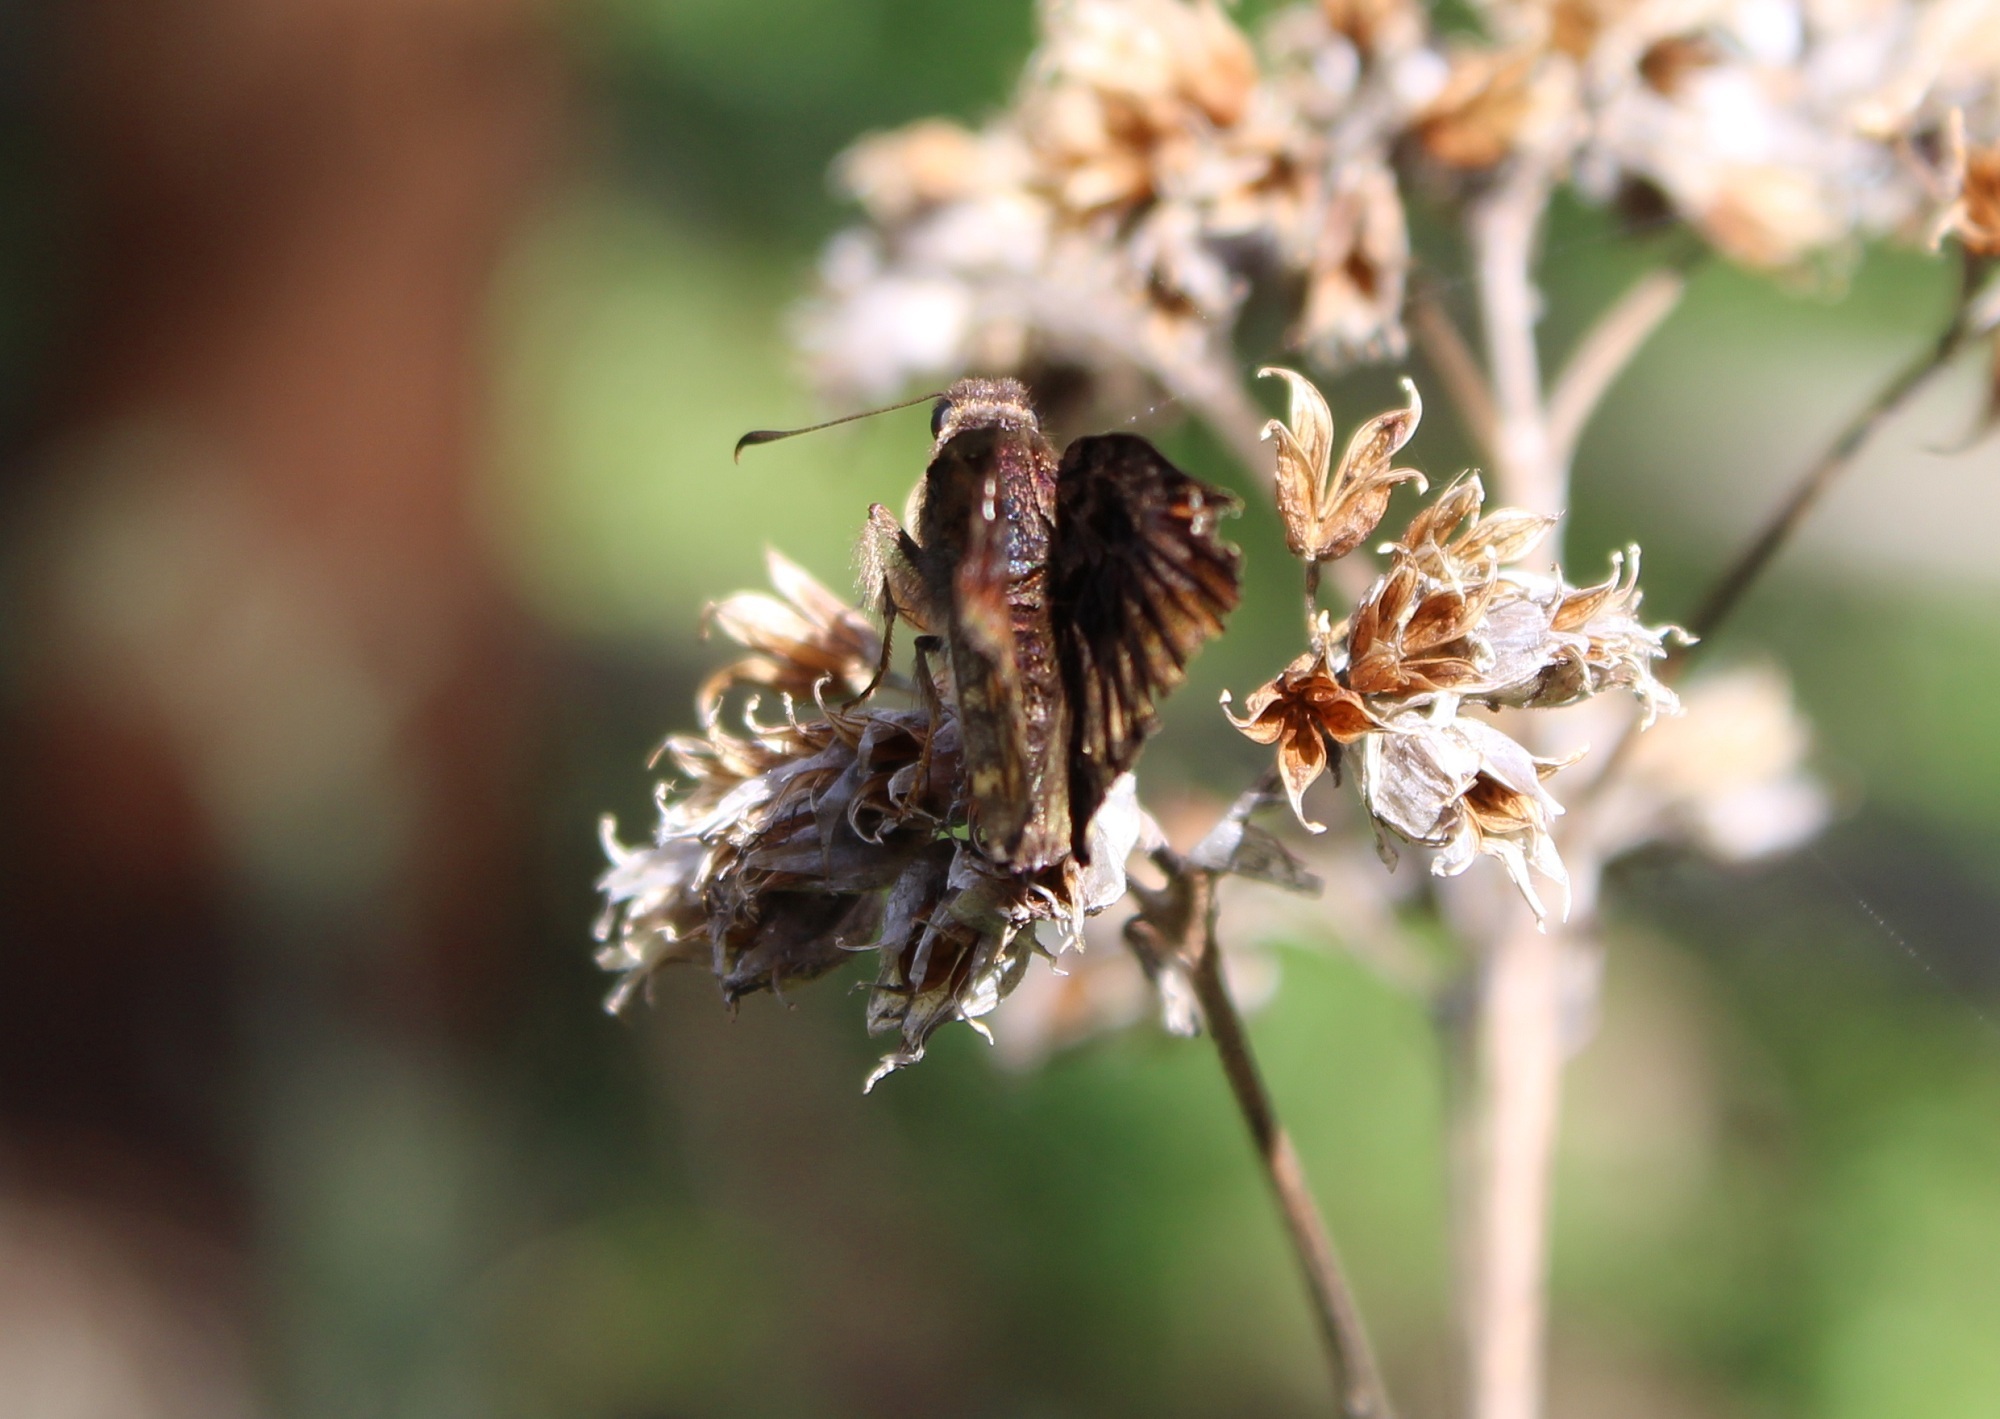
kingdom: Animalia
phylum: Arthropoda
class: Insecta
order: Lepidoptera
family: Hesperiidae
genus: Noctuana
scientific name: Noctuana haematospila
